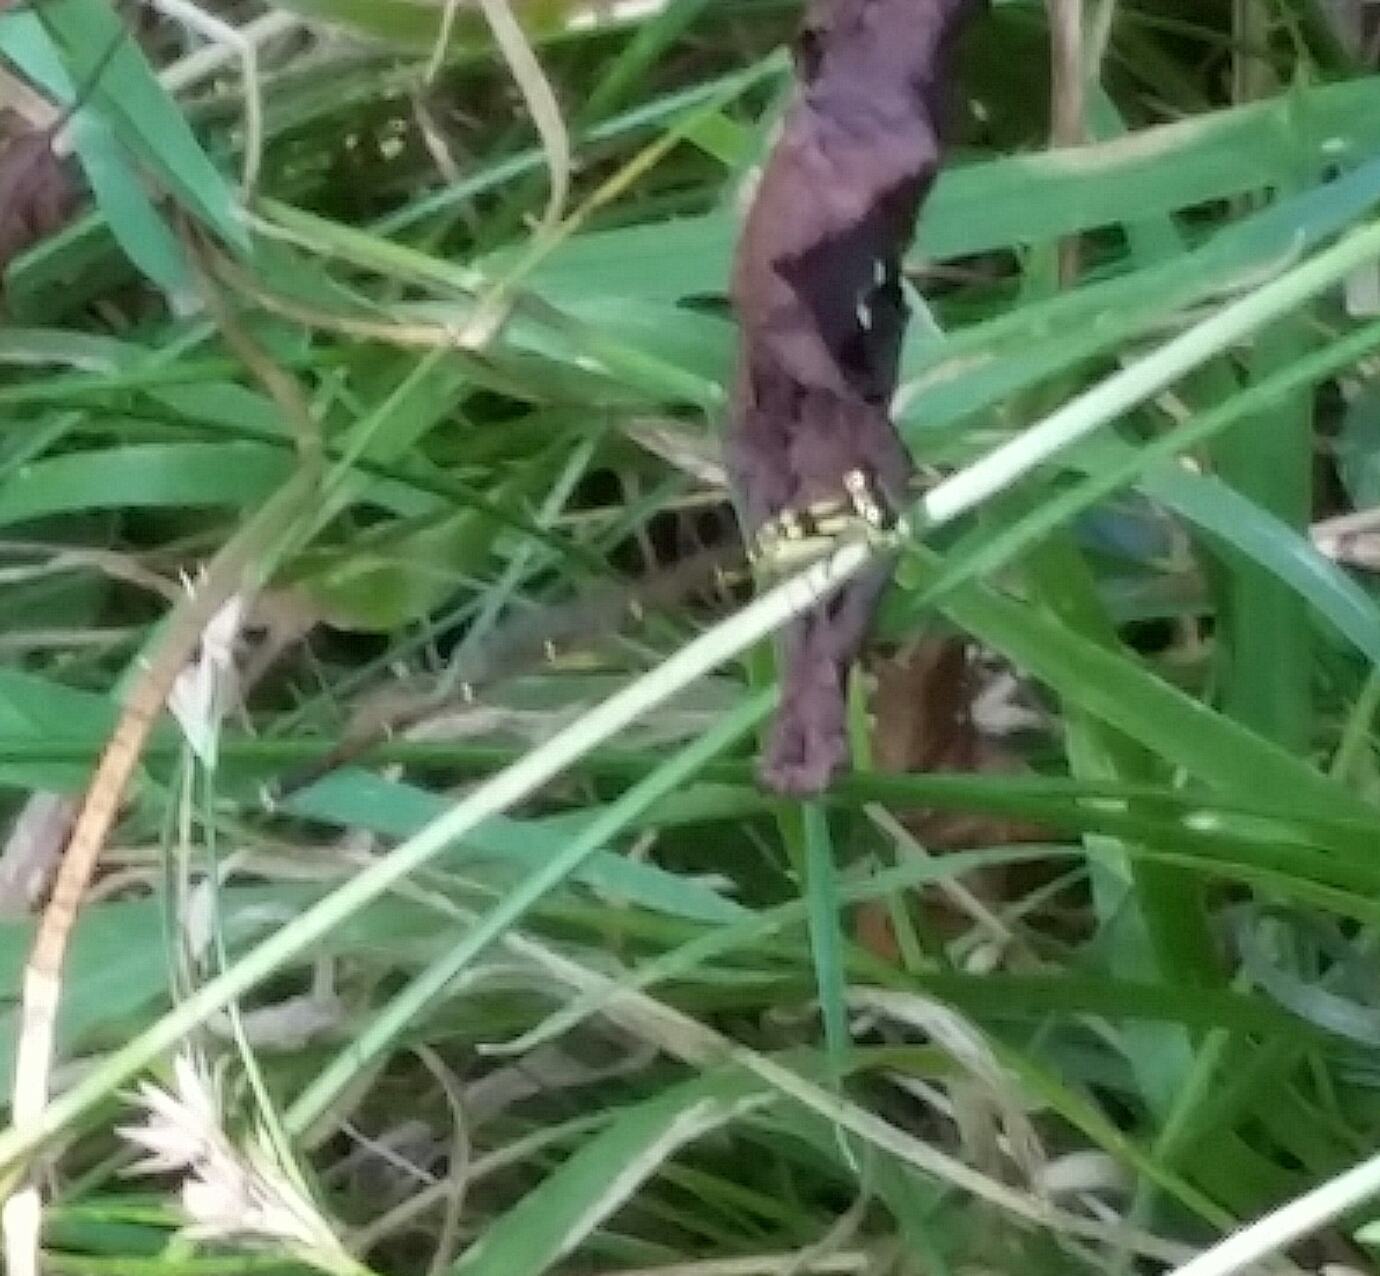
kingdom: Animalia
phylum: Arthropoda
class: Insecta
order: Odonata
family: Coenagrionidae
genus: Ischnura
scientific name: Ischnura posita
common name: Fragile forktail
